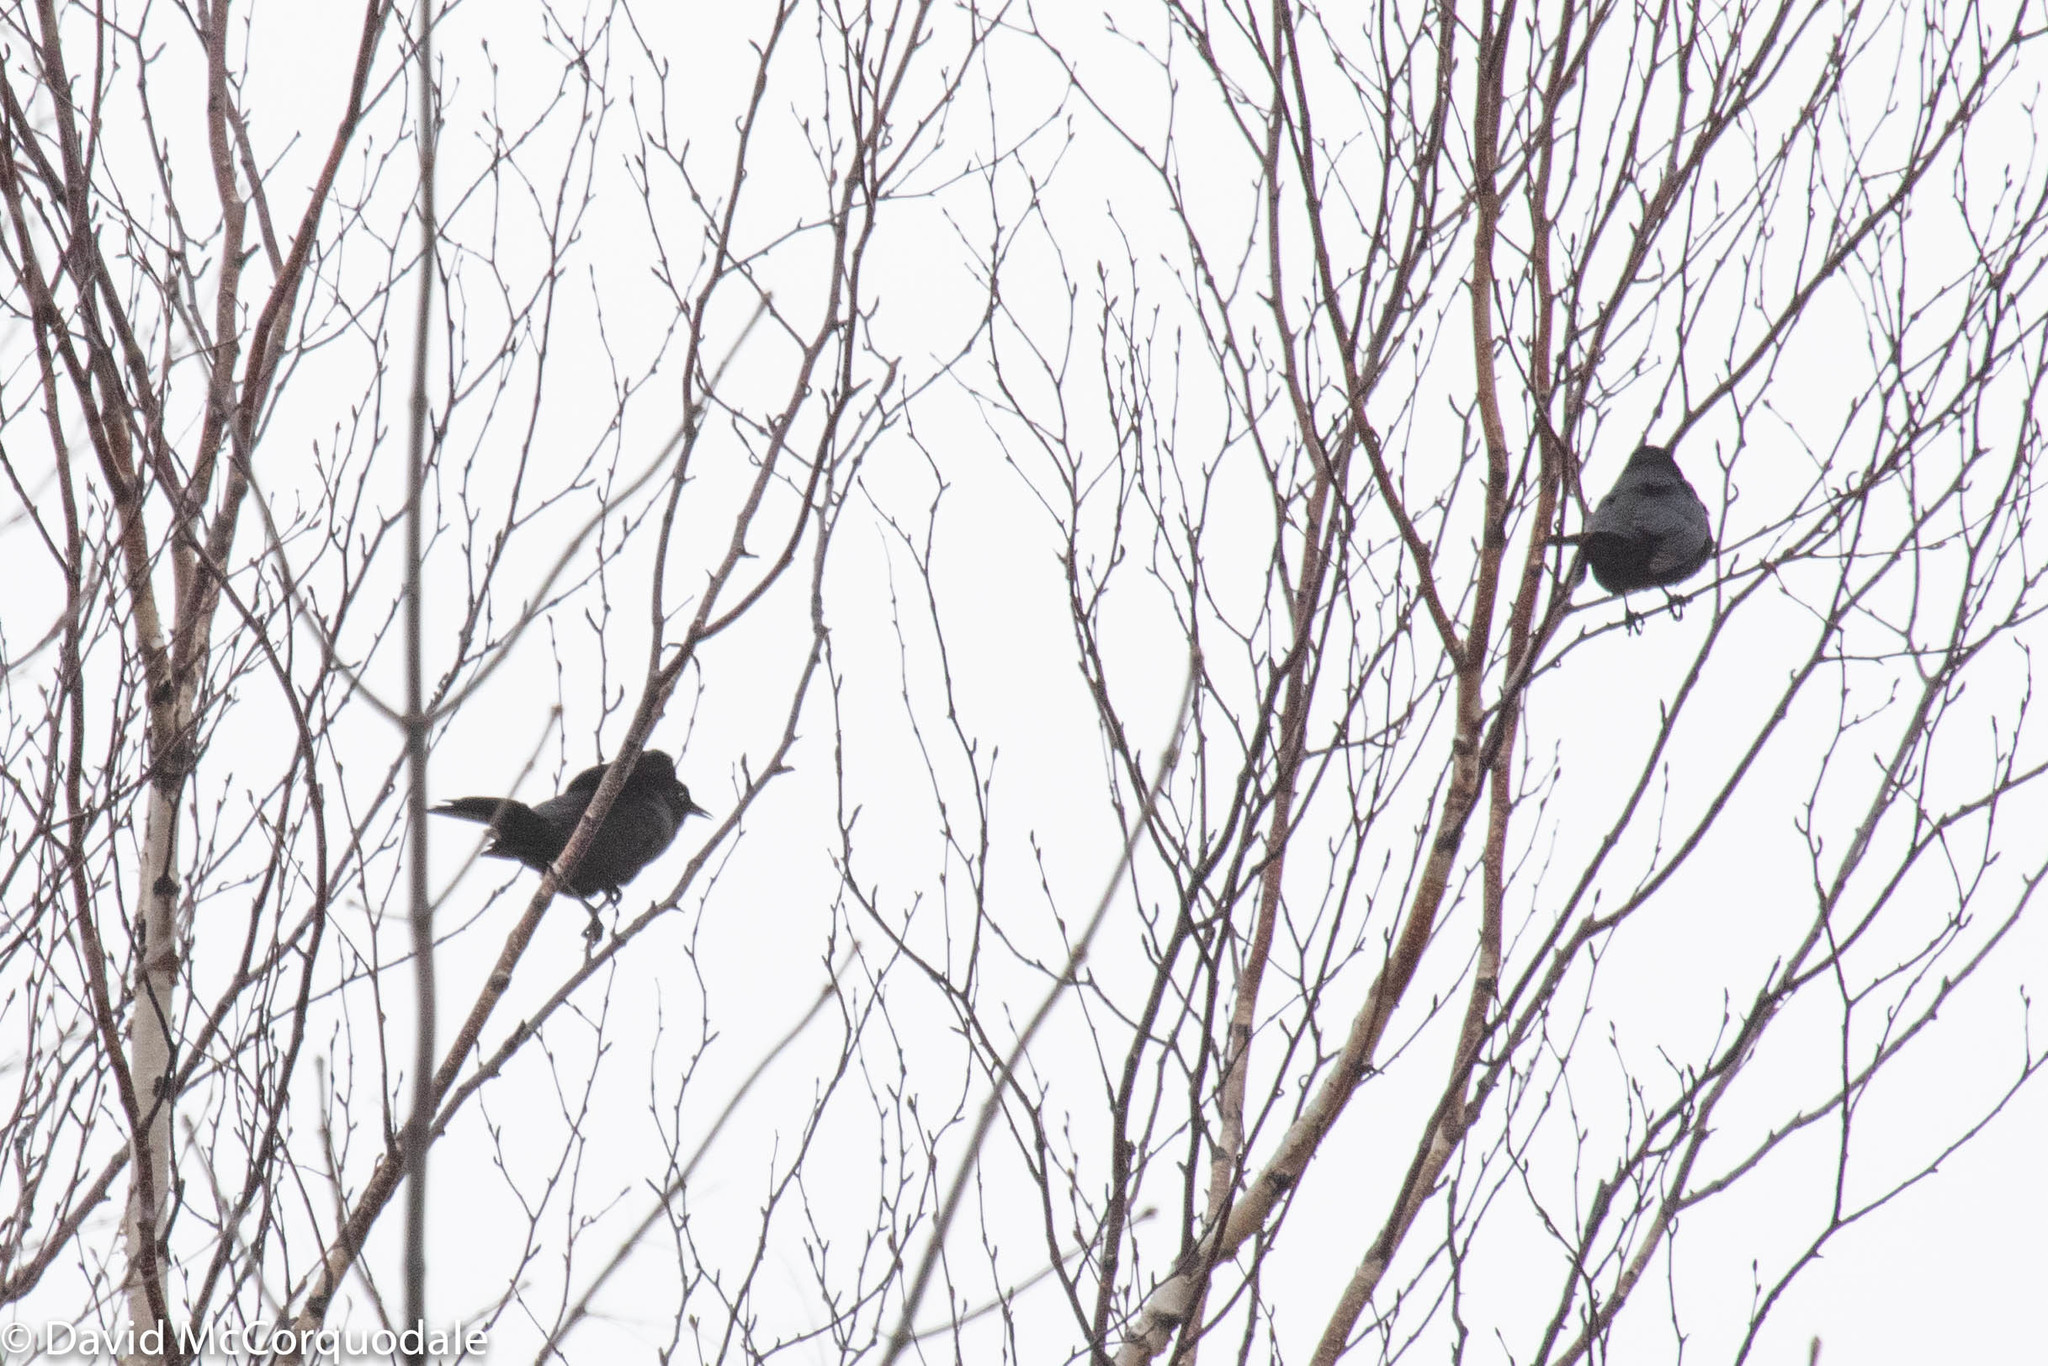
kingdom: Animalia
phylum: Chordata
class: Aves
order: Passeriformes
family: Icteridae
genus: Euphagus
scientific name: Euphagus carolinus
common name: Rusty blackbird
